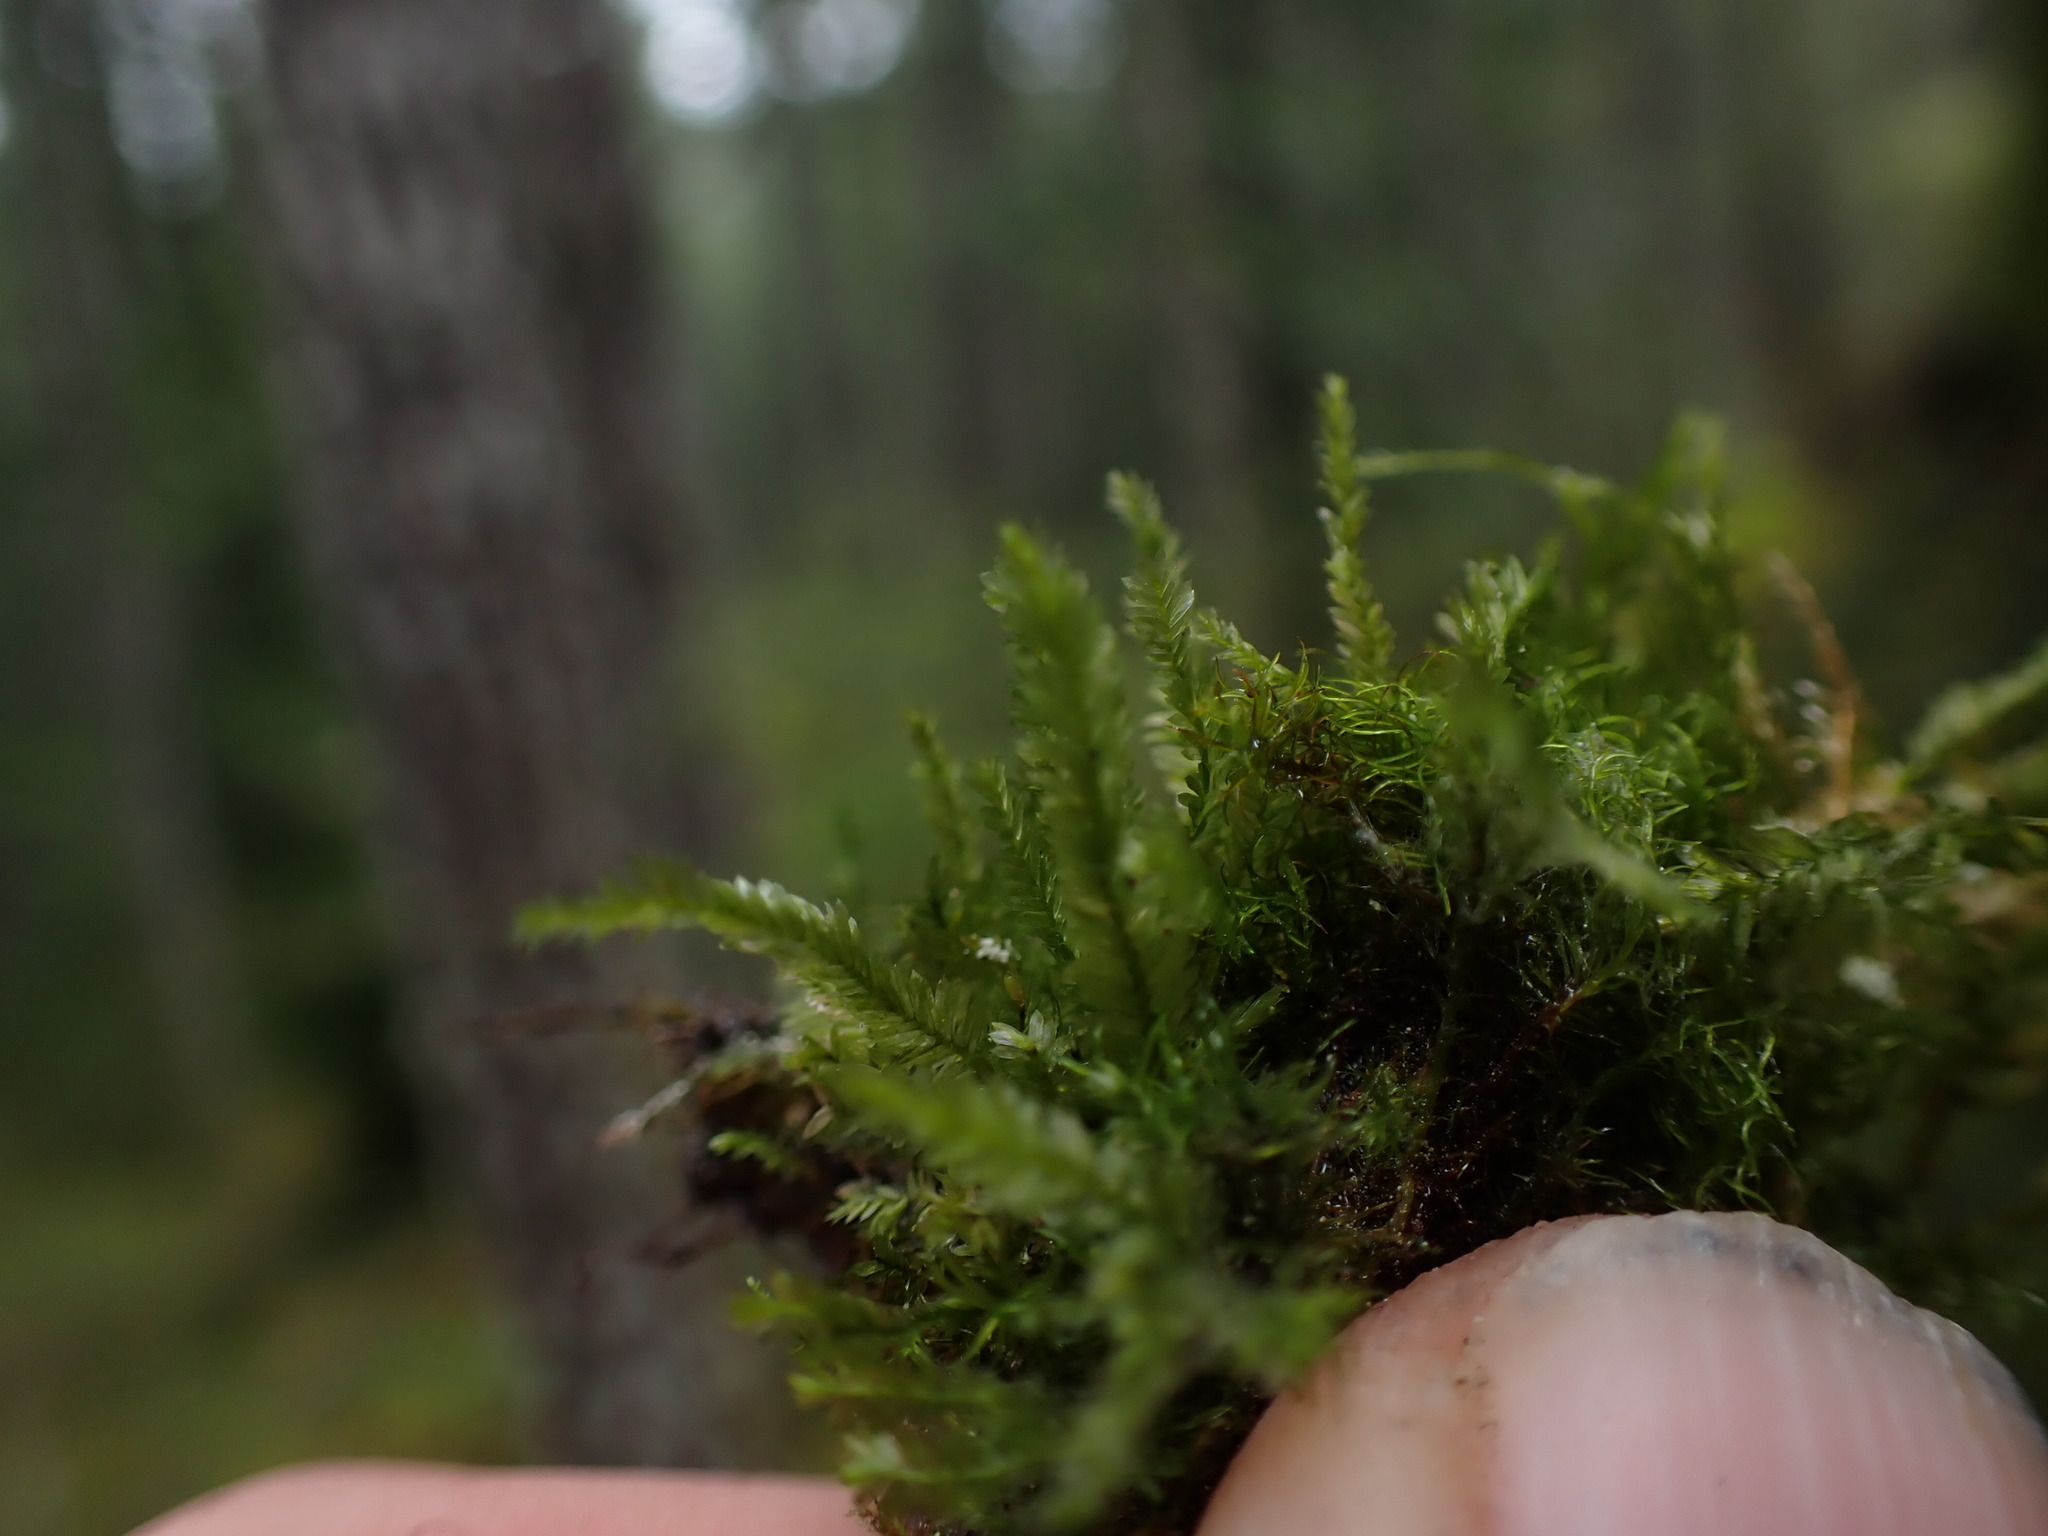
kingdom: Plantae
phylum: Bryophyta
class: Bryopsida
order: Hypnales
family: Neckeraceae
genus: Dannorrisia
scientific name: Dannorrisia bigelovii
